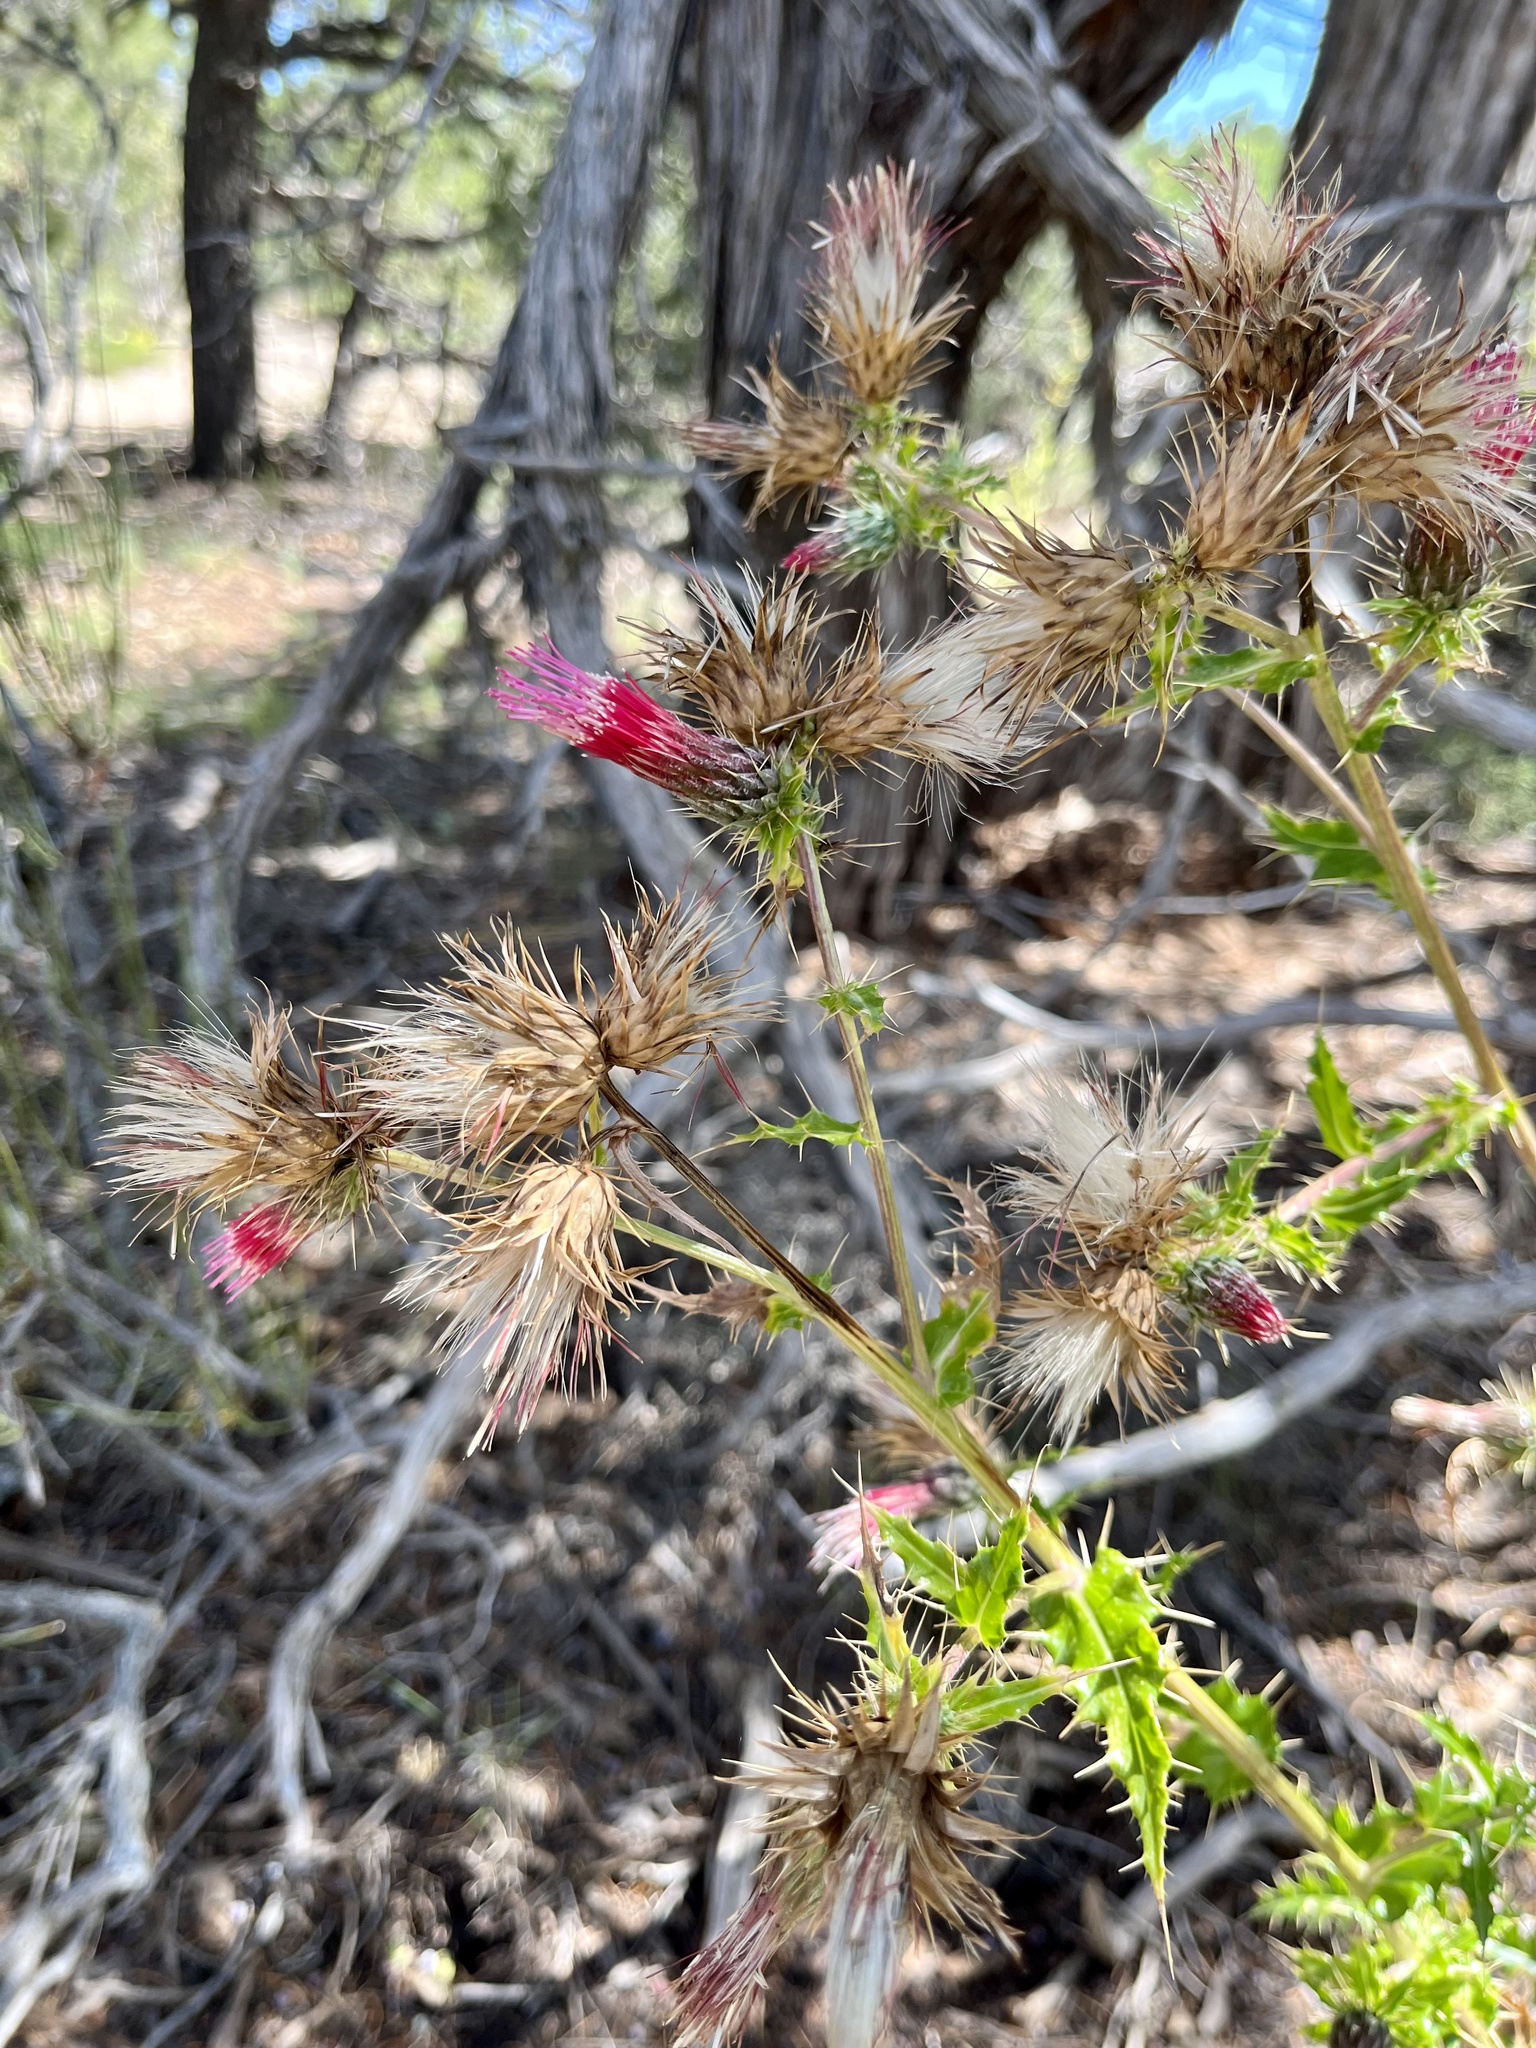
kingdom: Plantae
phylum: Tracheophyta
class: Magnoliopsida
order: Asterales
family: Asteraceae
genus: Cirsium
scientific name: Cirsium arizonicum
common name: Arizona thistle
